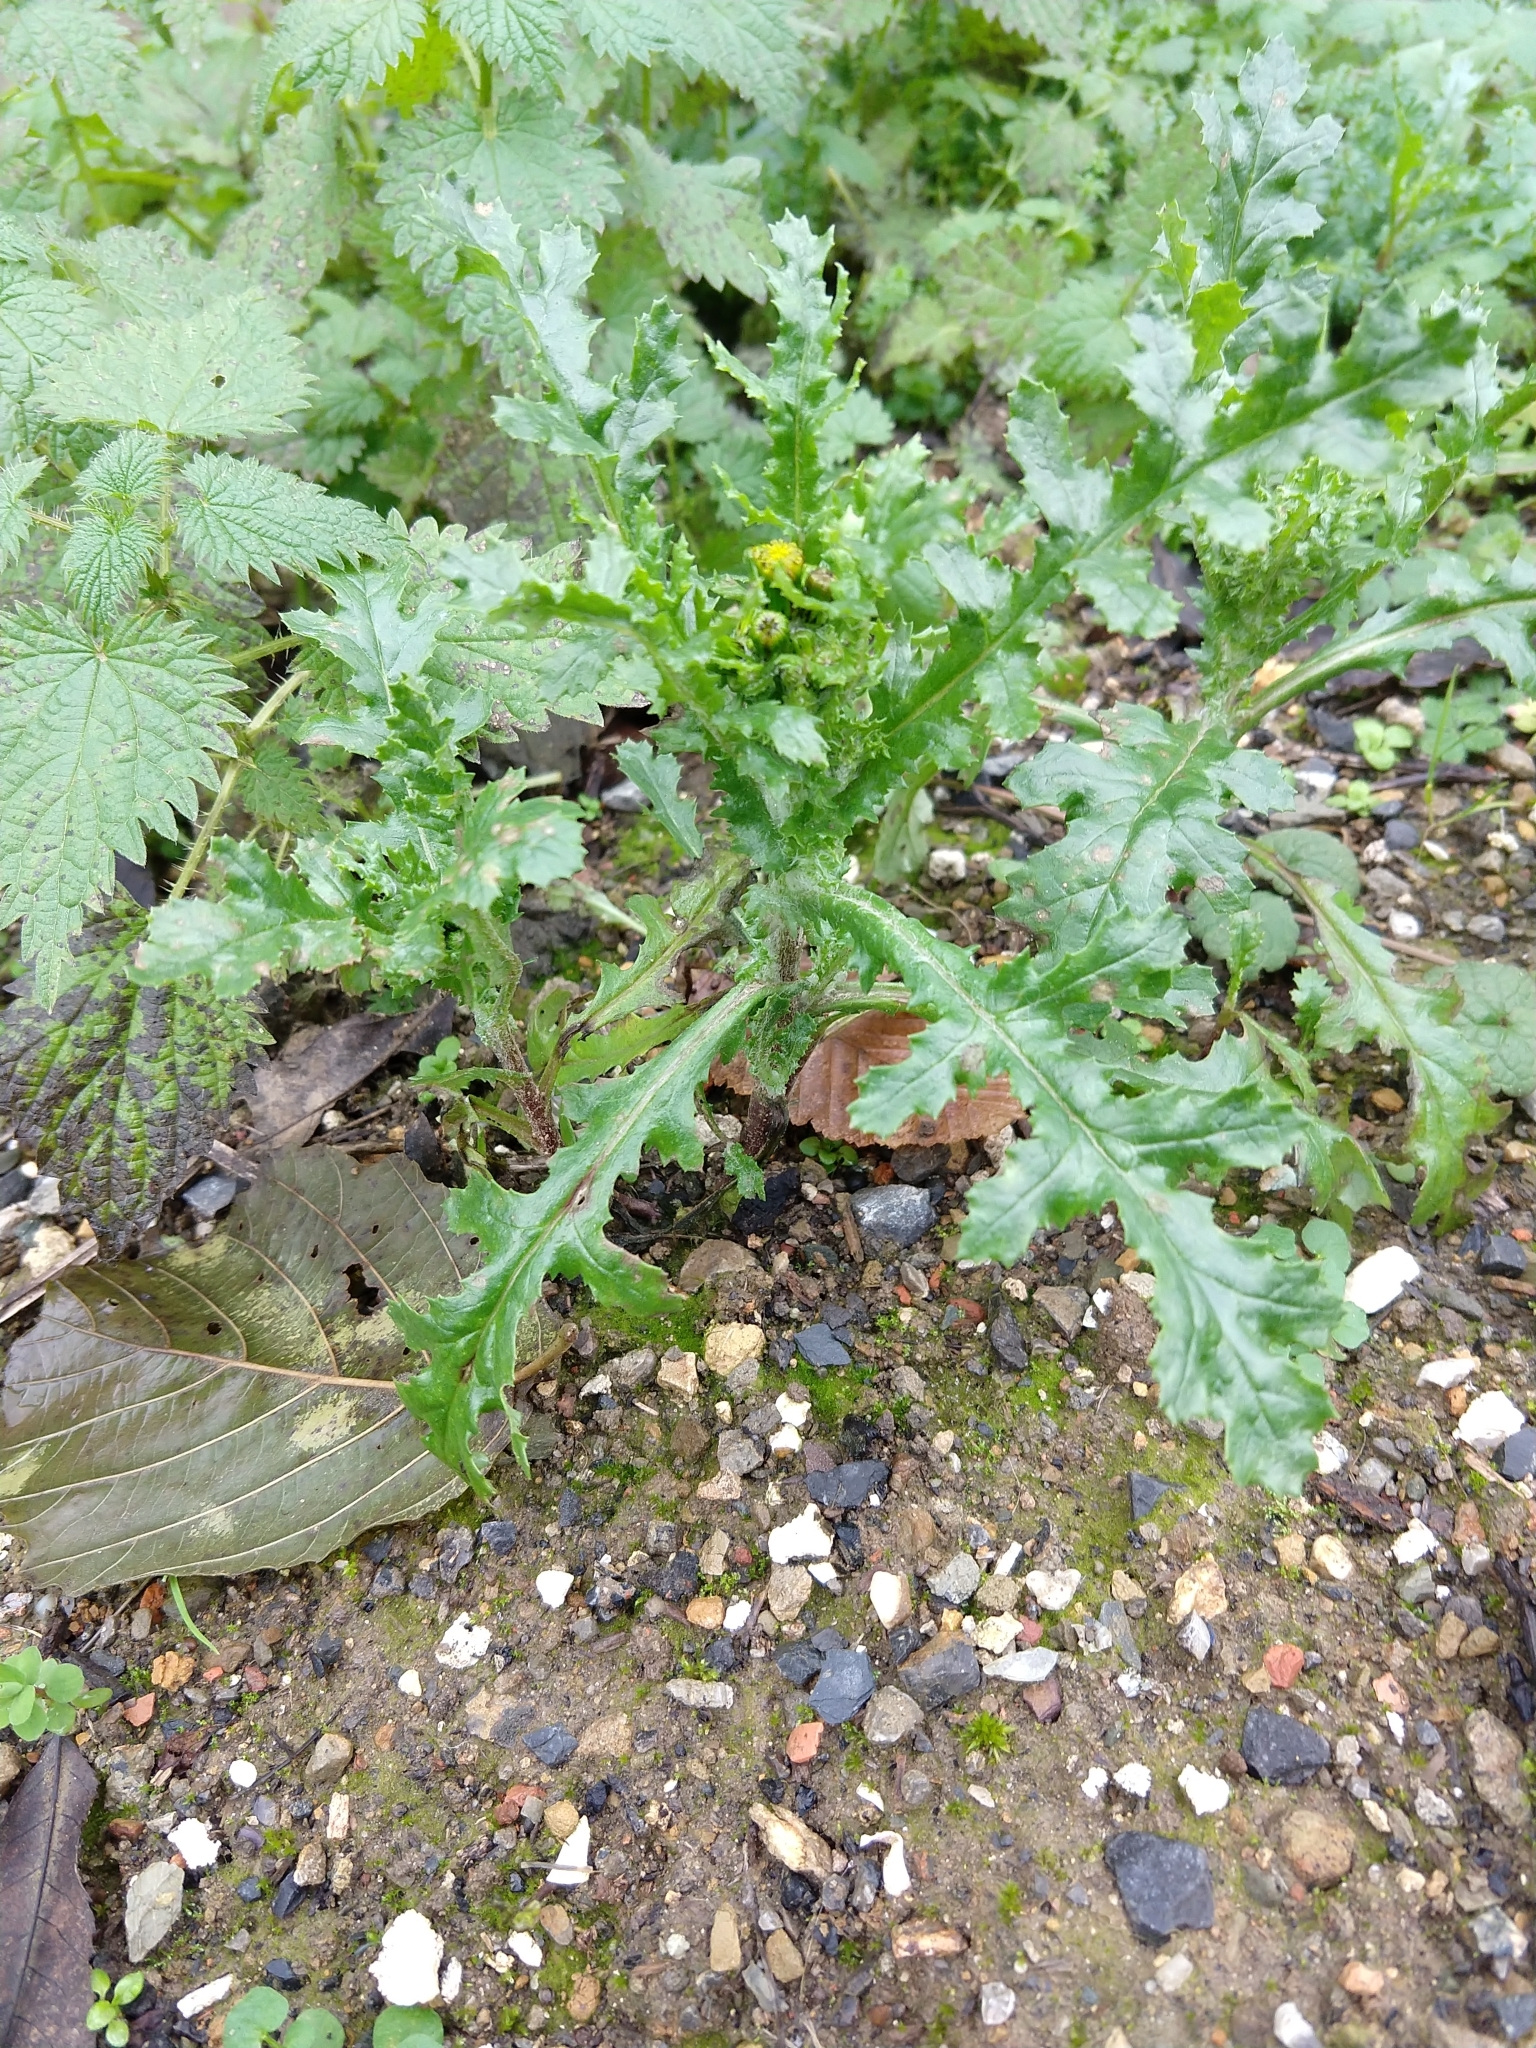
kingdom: Plantae
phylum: Tracheophyta
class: Magnoliopsida
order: Asterales
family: Asteraceae
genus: Senecio
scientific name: Senecio vulgaris
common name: Old-man-in-the-spring
